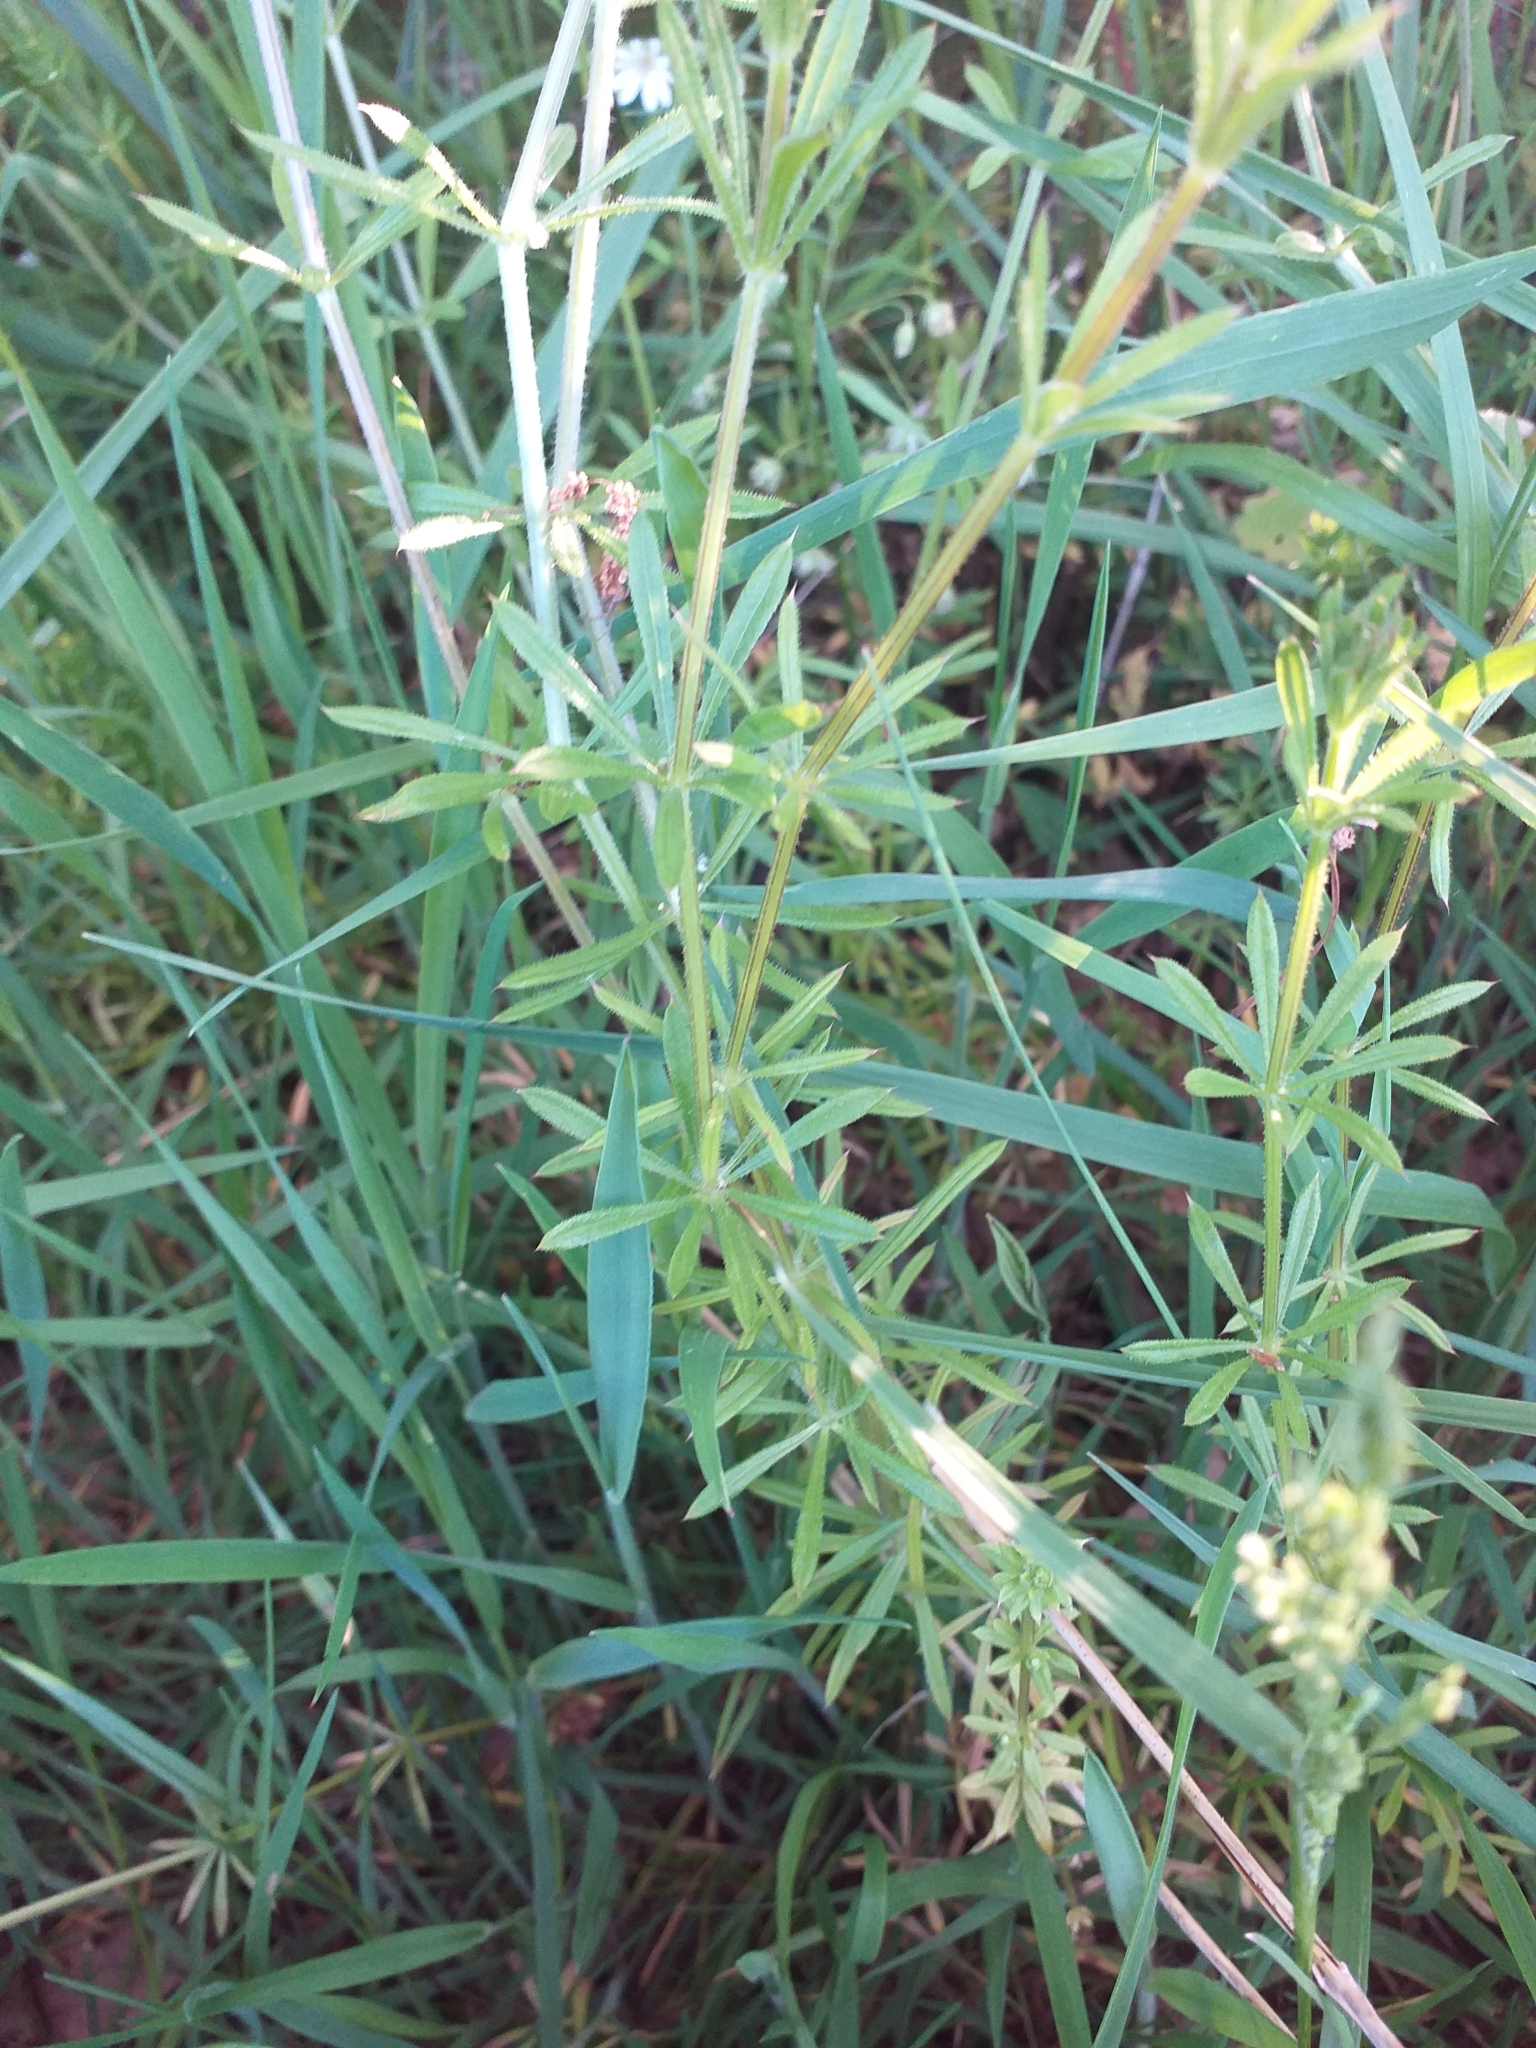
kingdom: Plantae
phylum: Tracheophyta
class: Magnoliopsida
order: Gentianales
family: Rubiaceae
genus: Galium
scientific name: Galium aparine
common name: Cleavers
